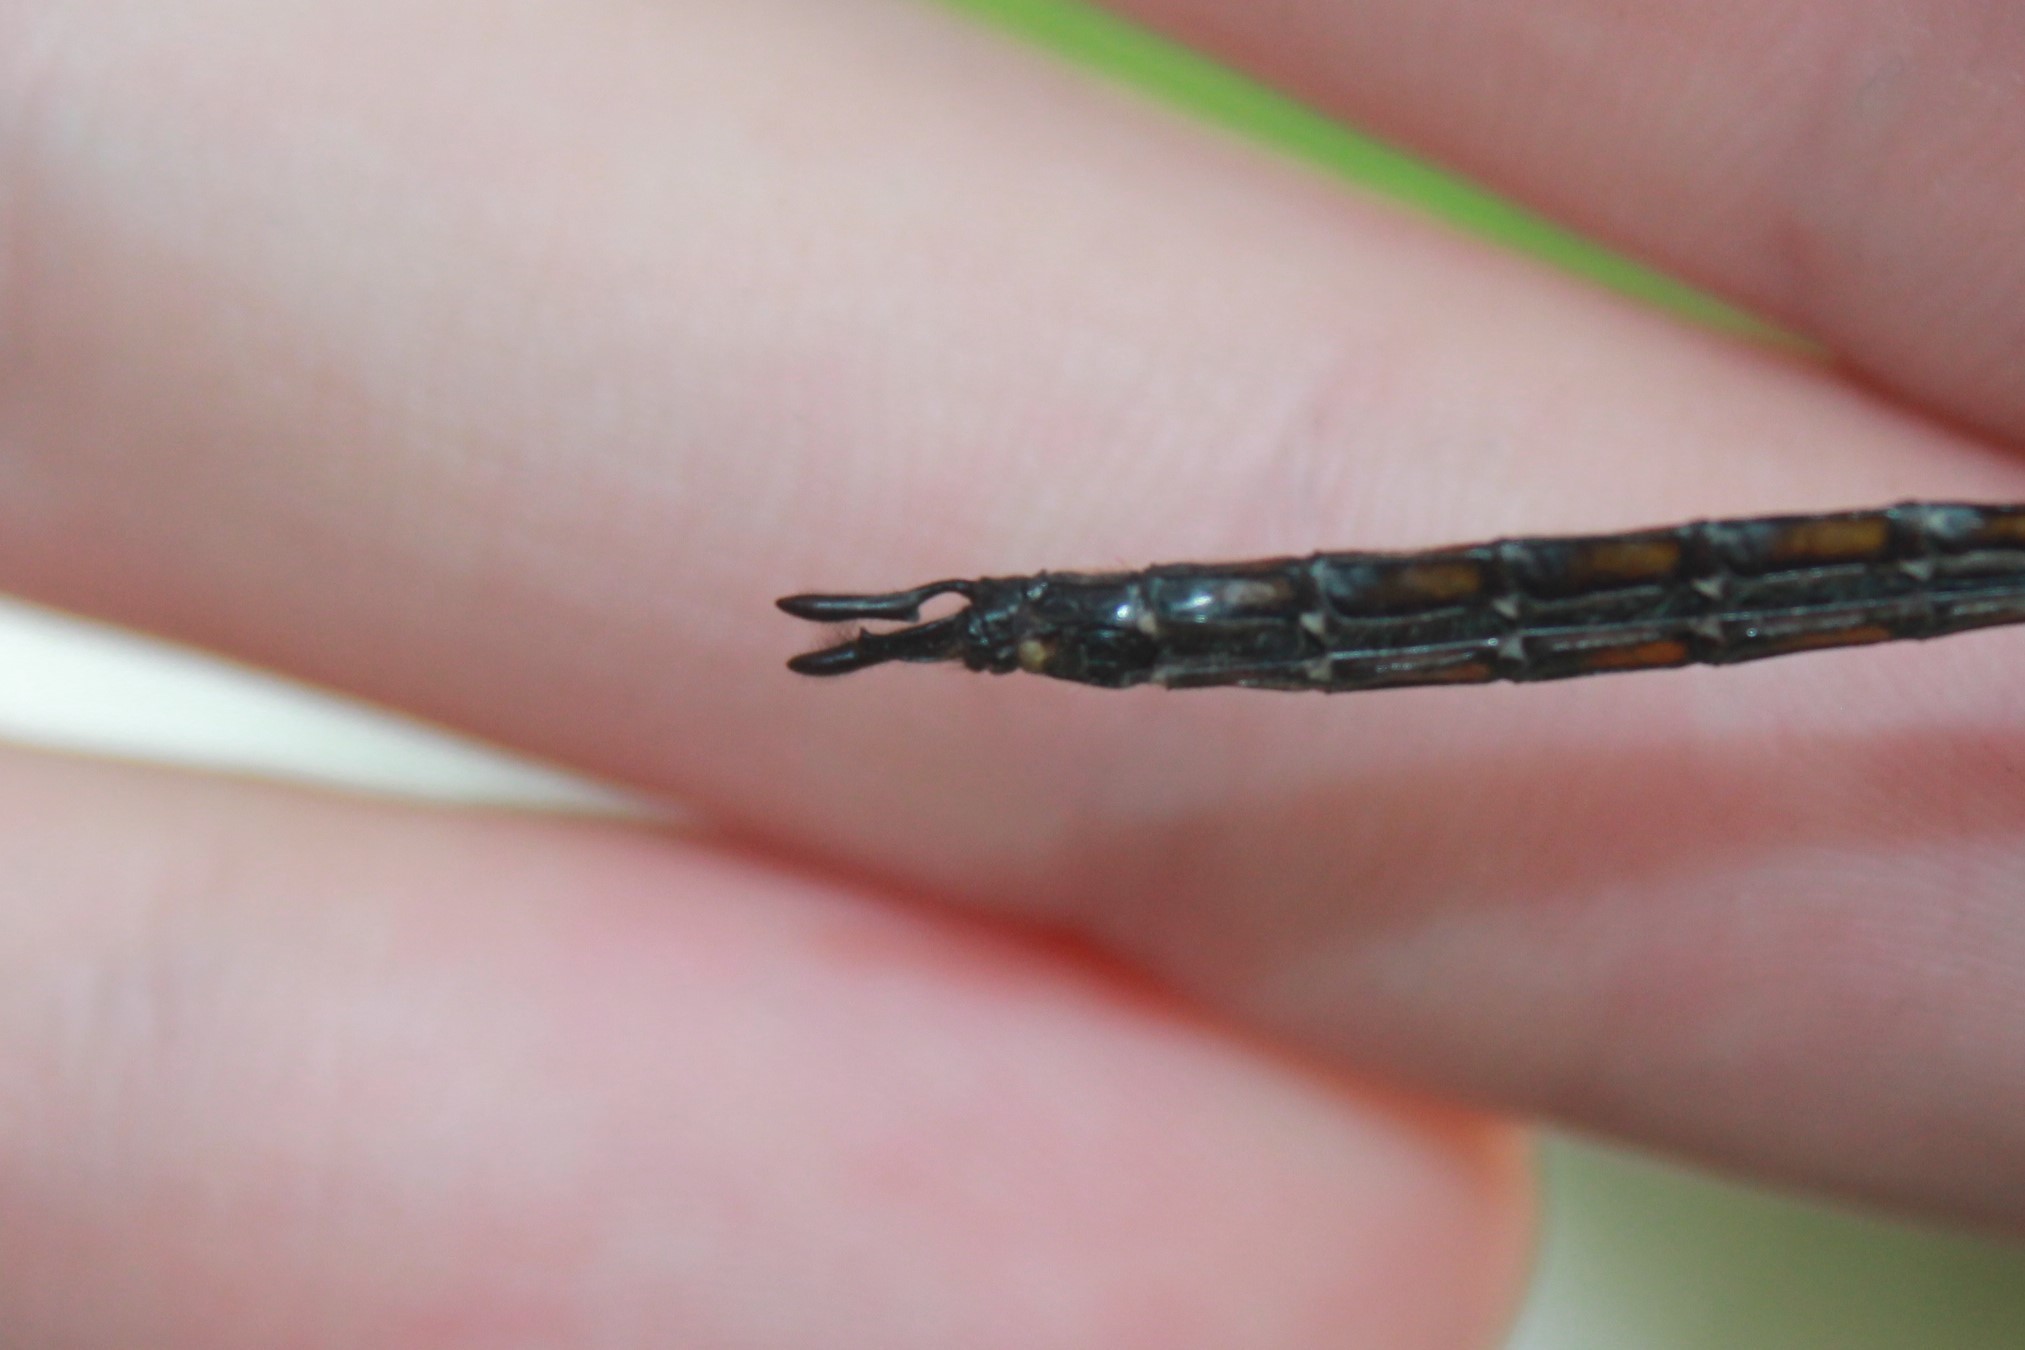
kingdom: Animalia
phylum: Arthropoda
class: Insecta
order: Odonata
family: Corduliidae
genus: Epitheca
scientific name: Epitheca cynosura
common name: Common baskettail
